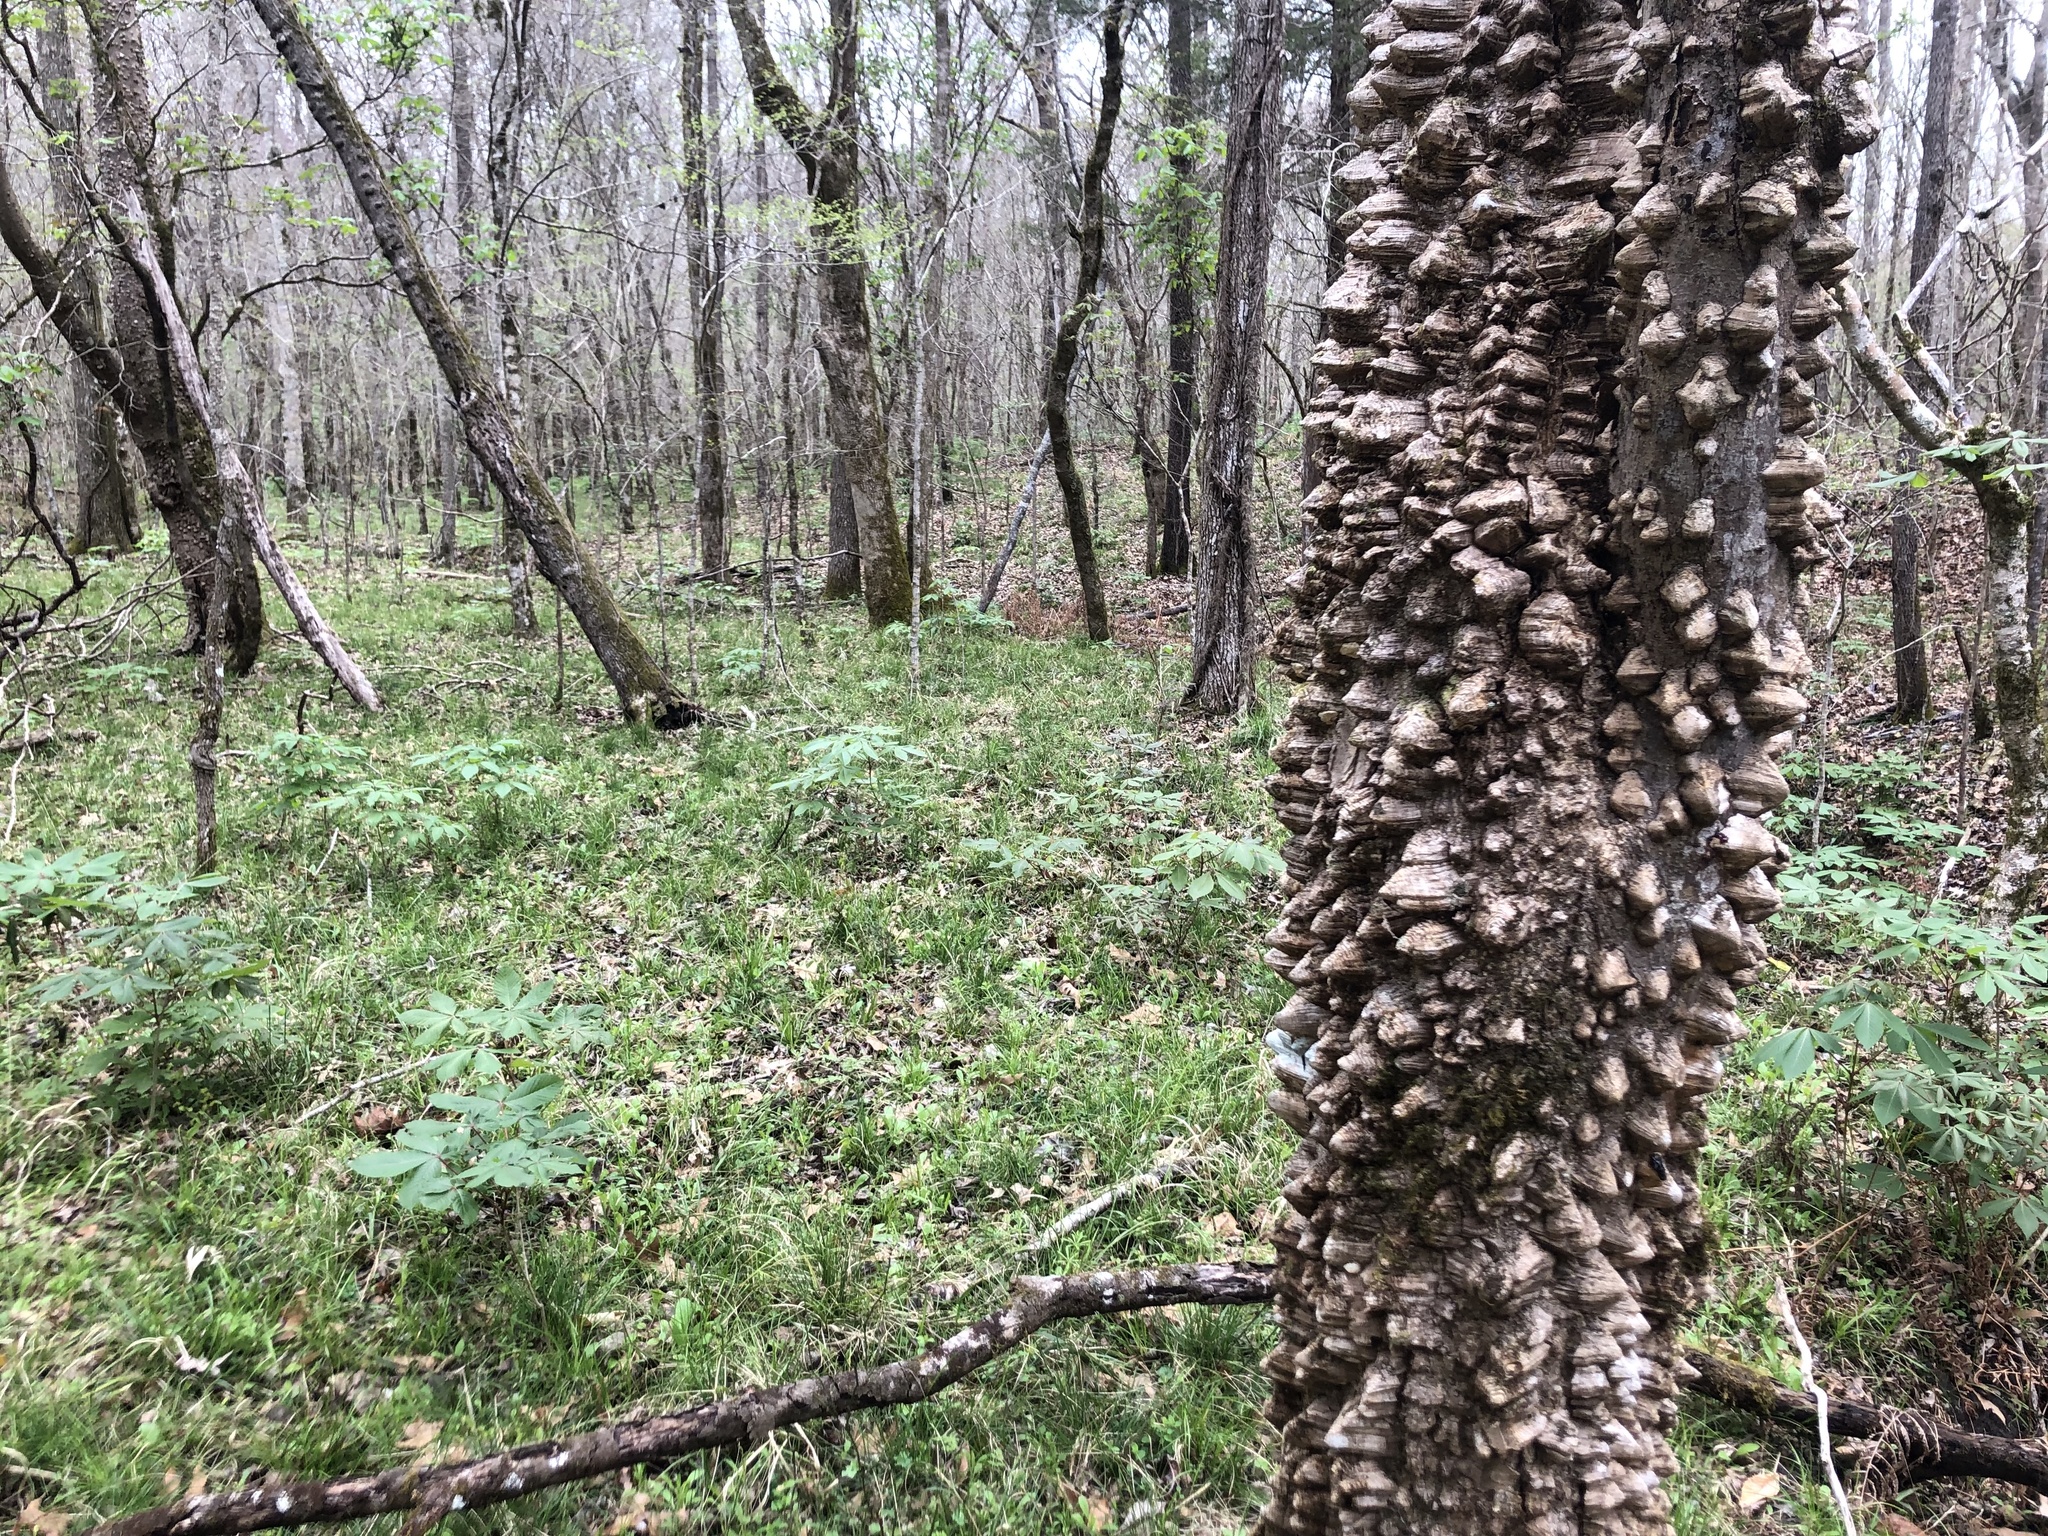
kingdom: Plantae
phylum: Tracheophyta
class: Magnoliopsida
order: Sapindales
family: Rutaceae
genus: Zanthoxylum
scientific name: Zanthoxylum clava-herculis
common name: Hercules'-club
